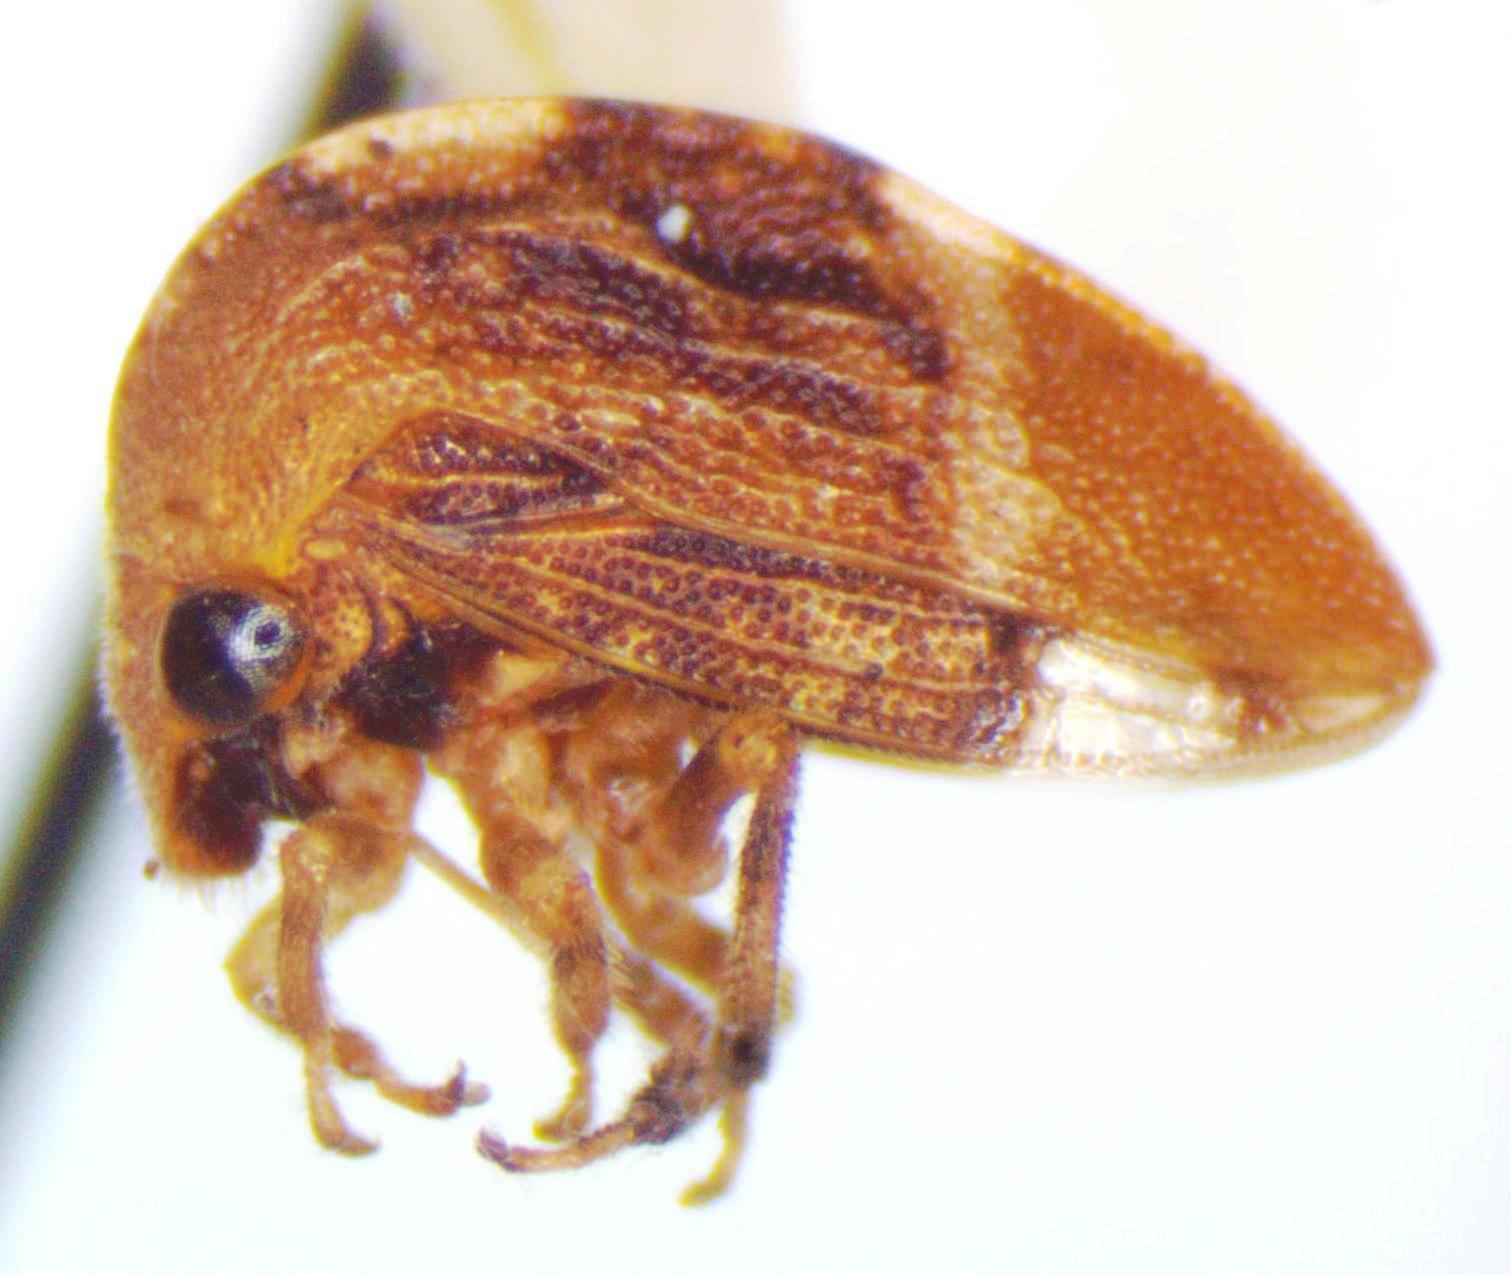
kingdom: Animalia
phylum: Arthropoda
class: Insecta
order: Hemiptera
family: Membracidae
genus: Adippe
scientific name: Adippe inaequalis
